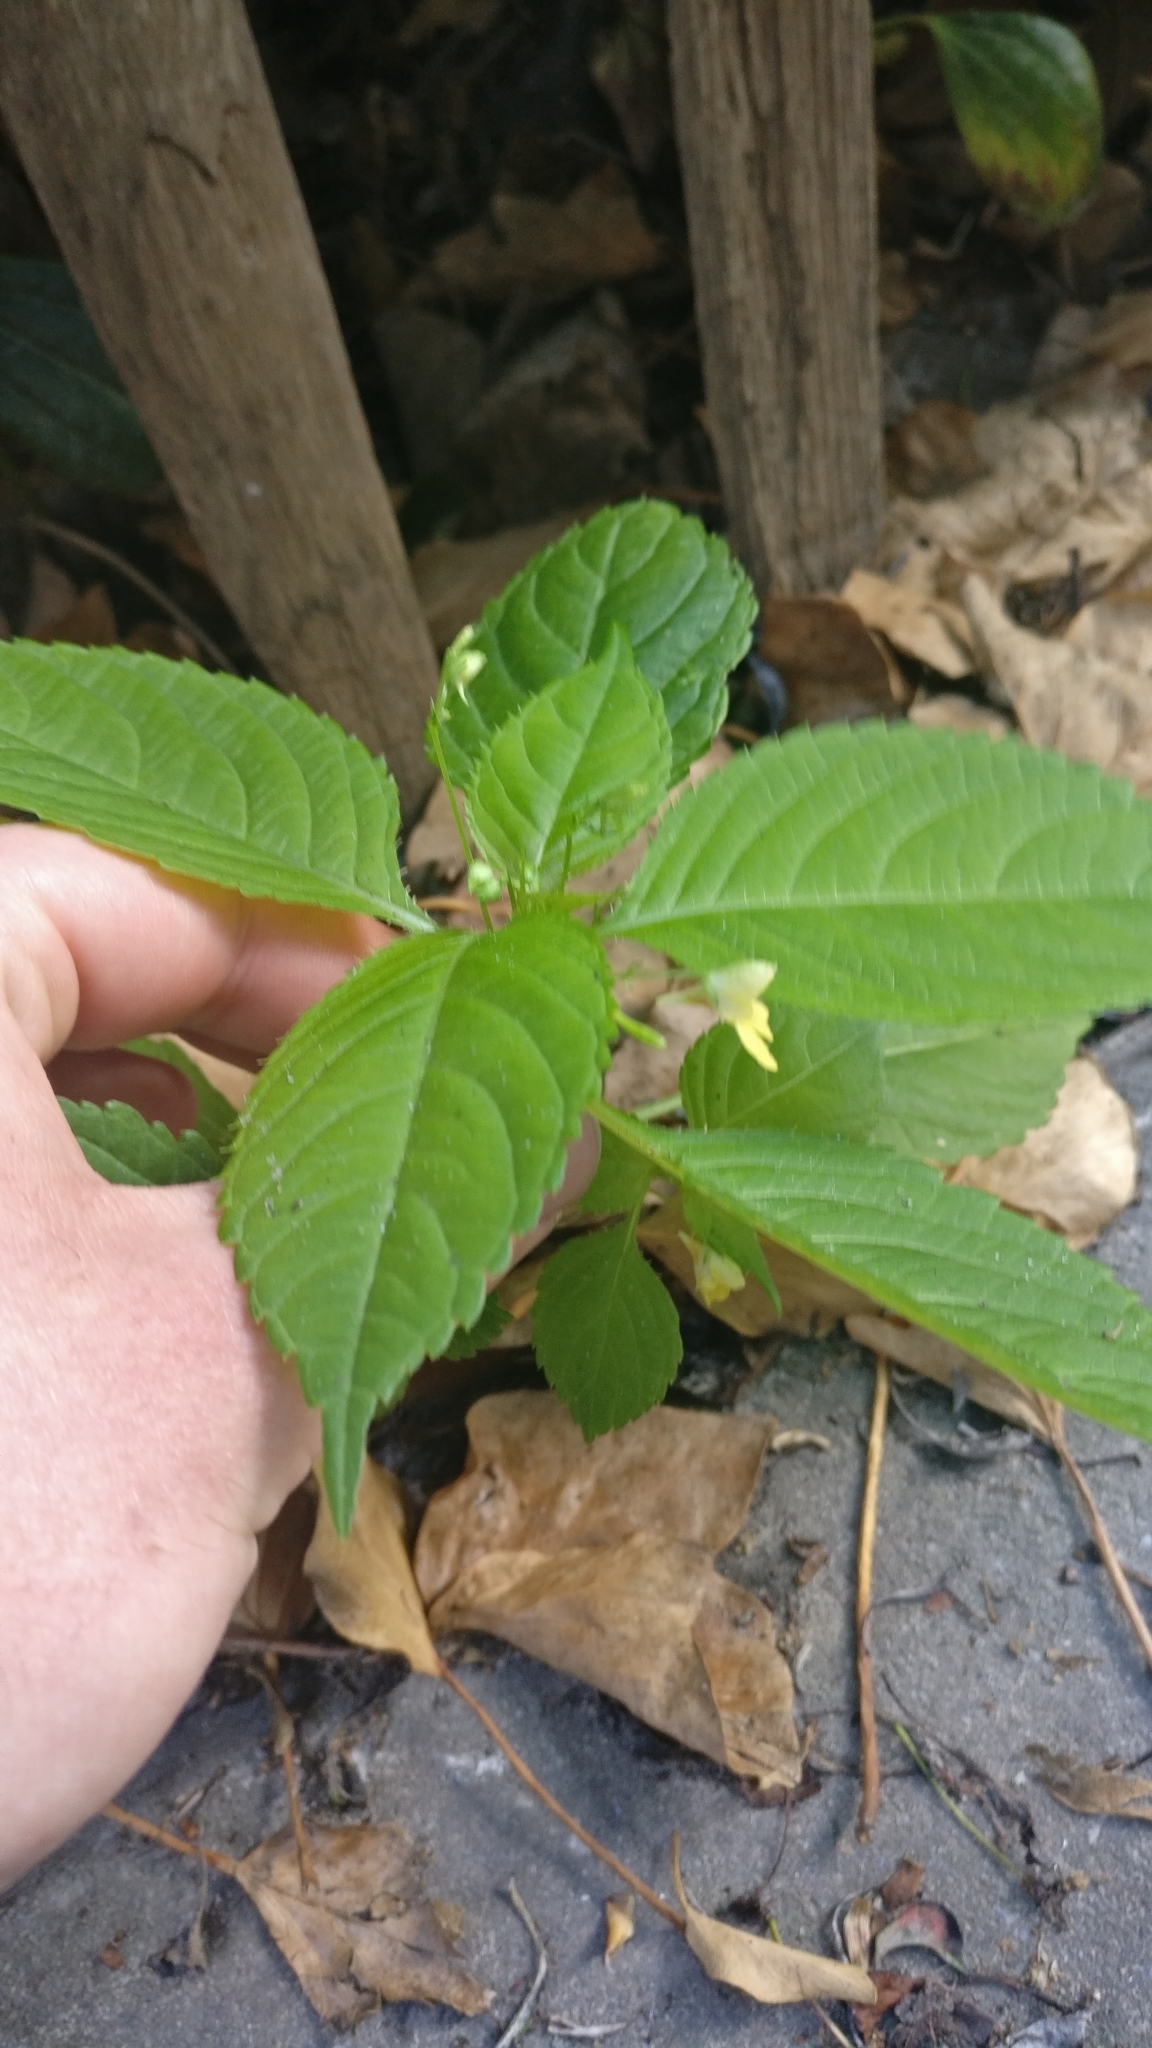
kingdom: Plantae
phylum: Tracheophyta
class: Magnoliopsida
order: Ericales
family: Balsaminaceae
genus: Impatiens
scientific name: Impatiens parviflora
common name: Small balsam
